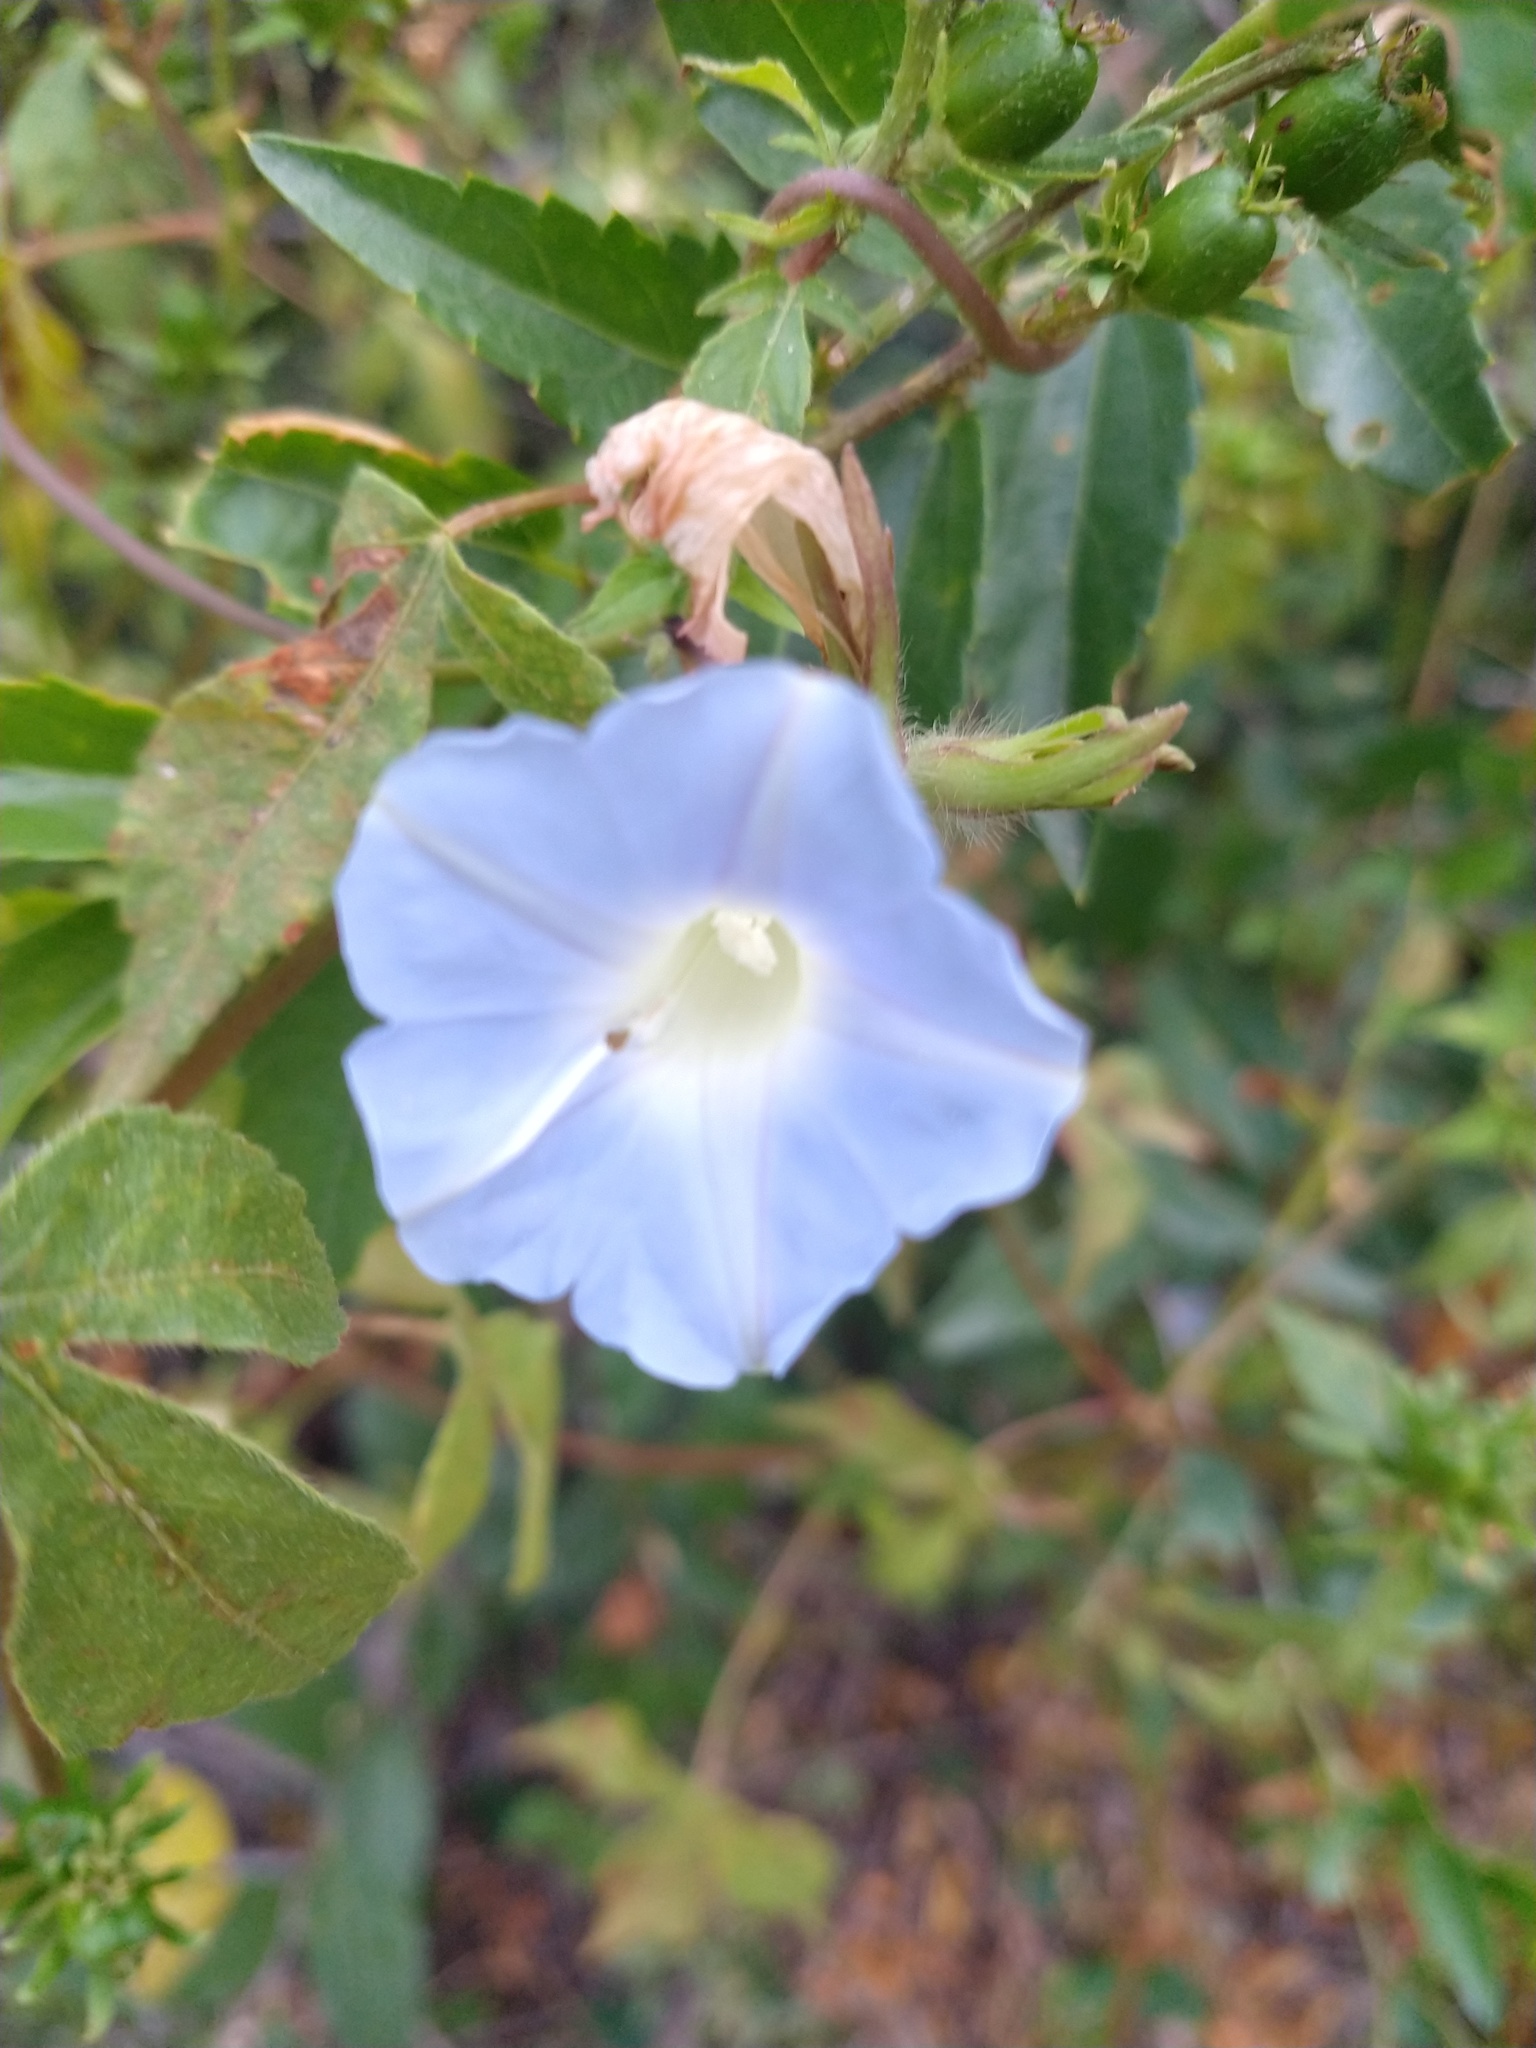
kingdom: Plantae
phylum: Tracheophyta
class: Magnoliopsida
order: Solanales
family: Convolvulaceae
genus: Ipomoea
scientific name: Ipomoea nil
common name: Japanese morning-glory
